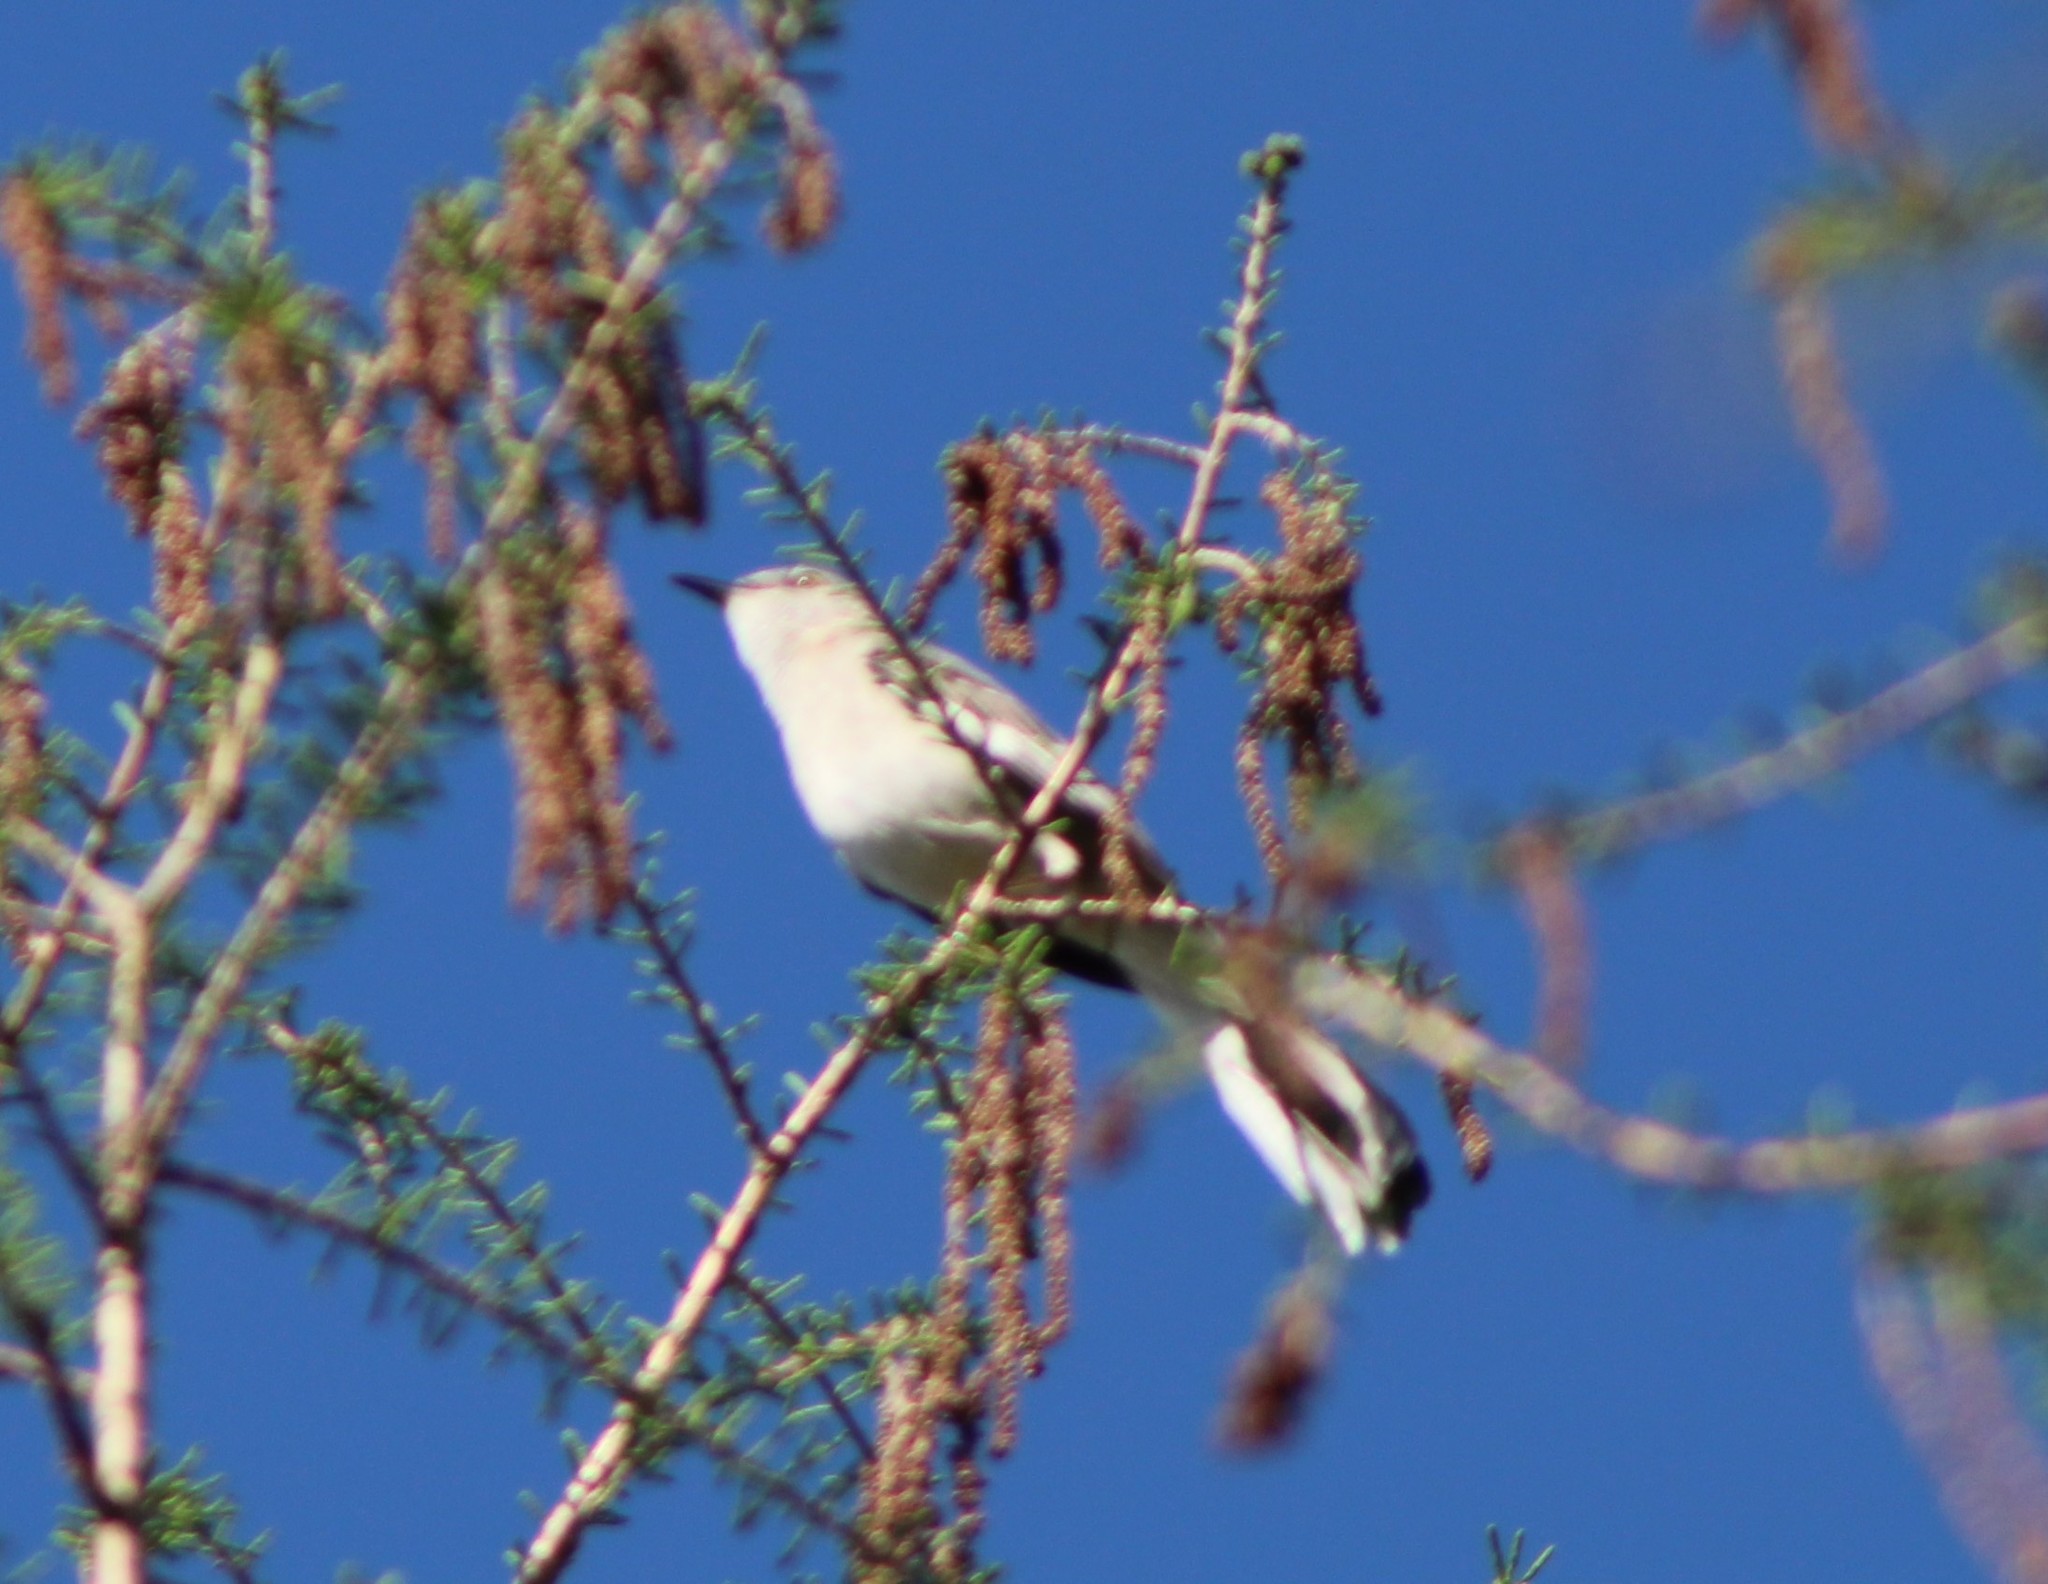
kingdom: Animalia
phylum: Chordata
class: Aves
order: Passeriformes
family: Mimidae
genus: Mimus
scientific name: Mimus polyglottos
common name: Northern mockingbird
